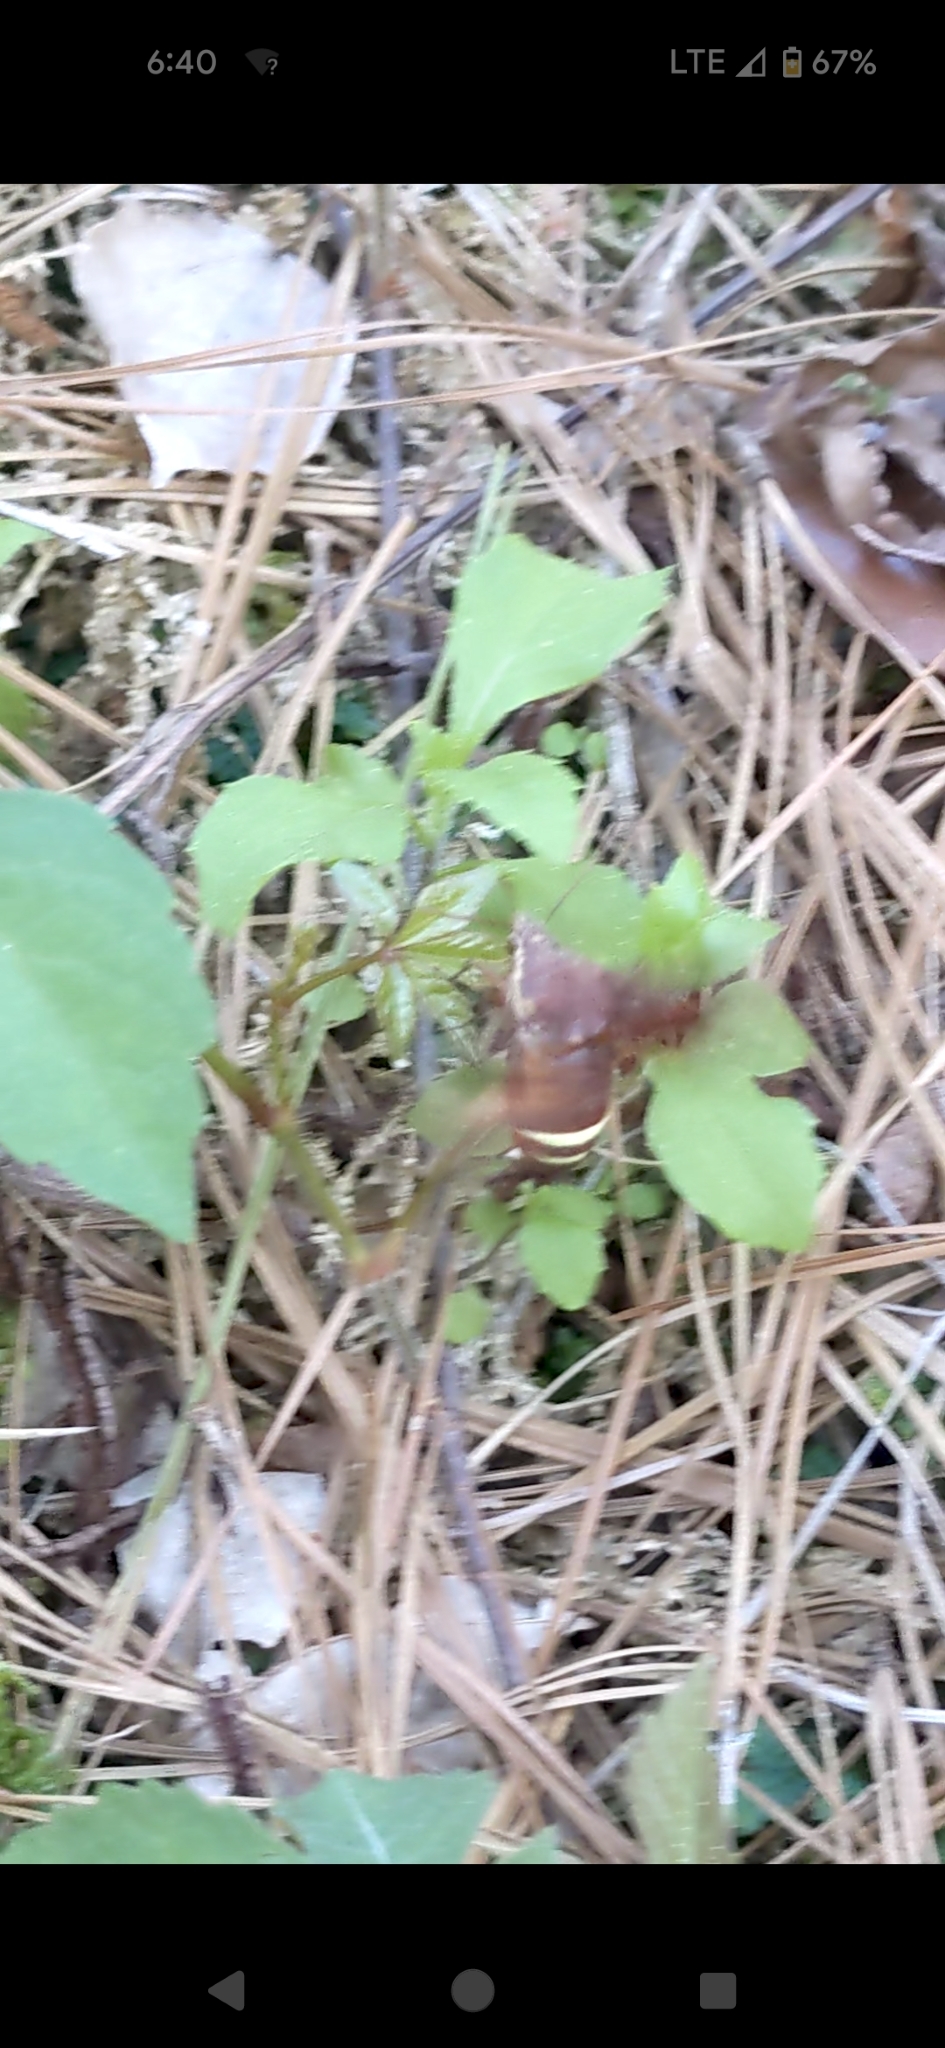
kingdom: Animalia
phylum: Arthropoda
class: Insecta
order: Lepidoptera
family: Sphingidae
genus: Amphion
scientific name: Amphion floridensis
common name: Nessus sphinx
